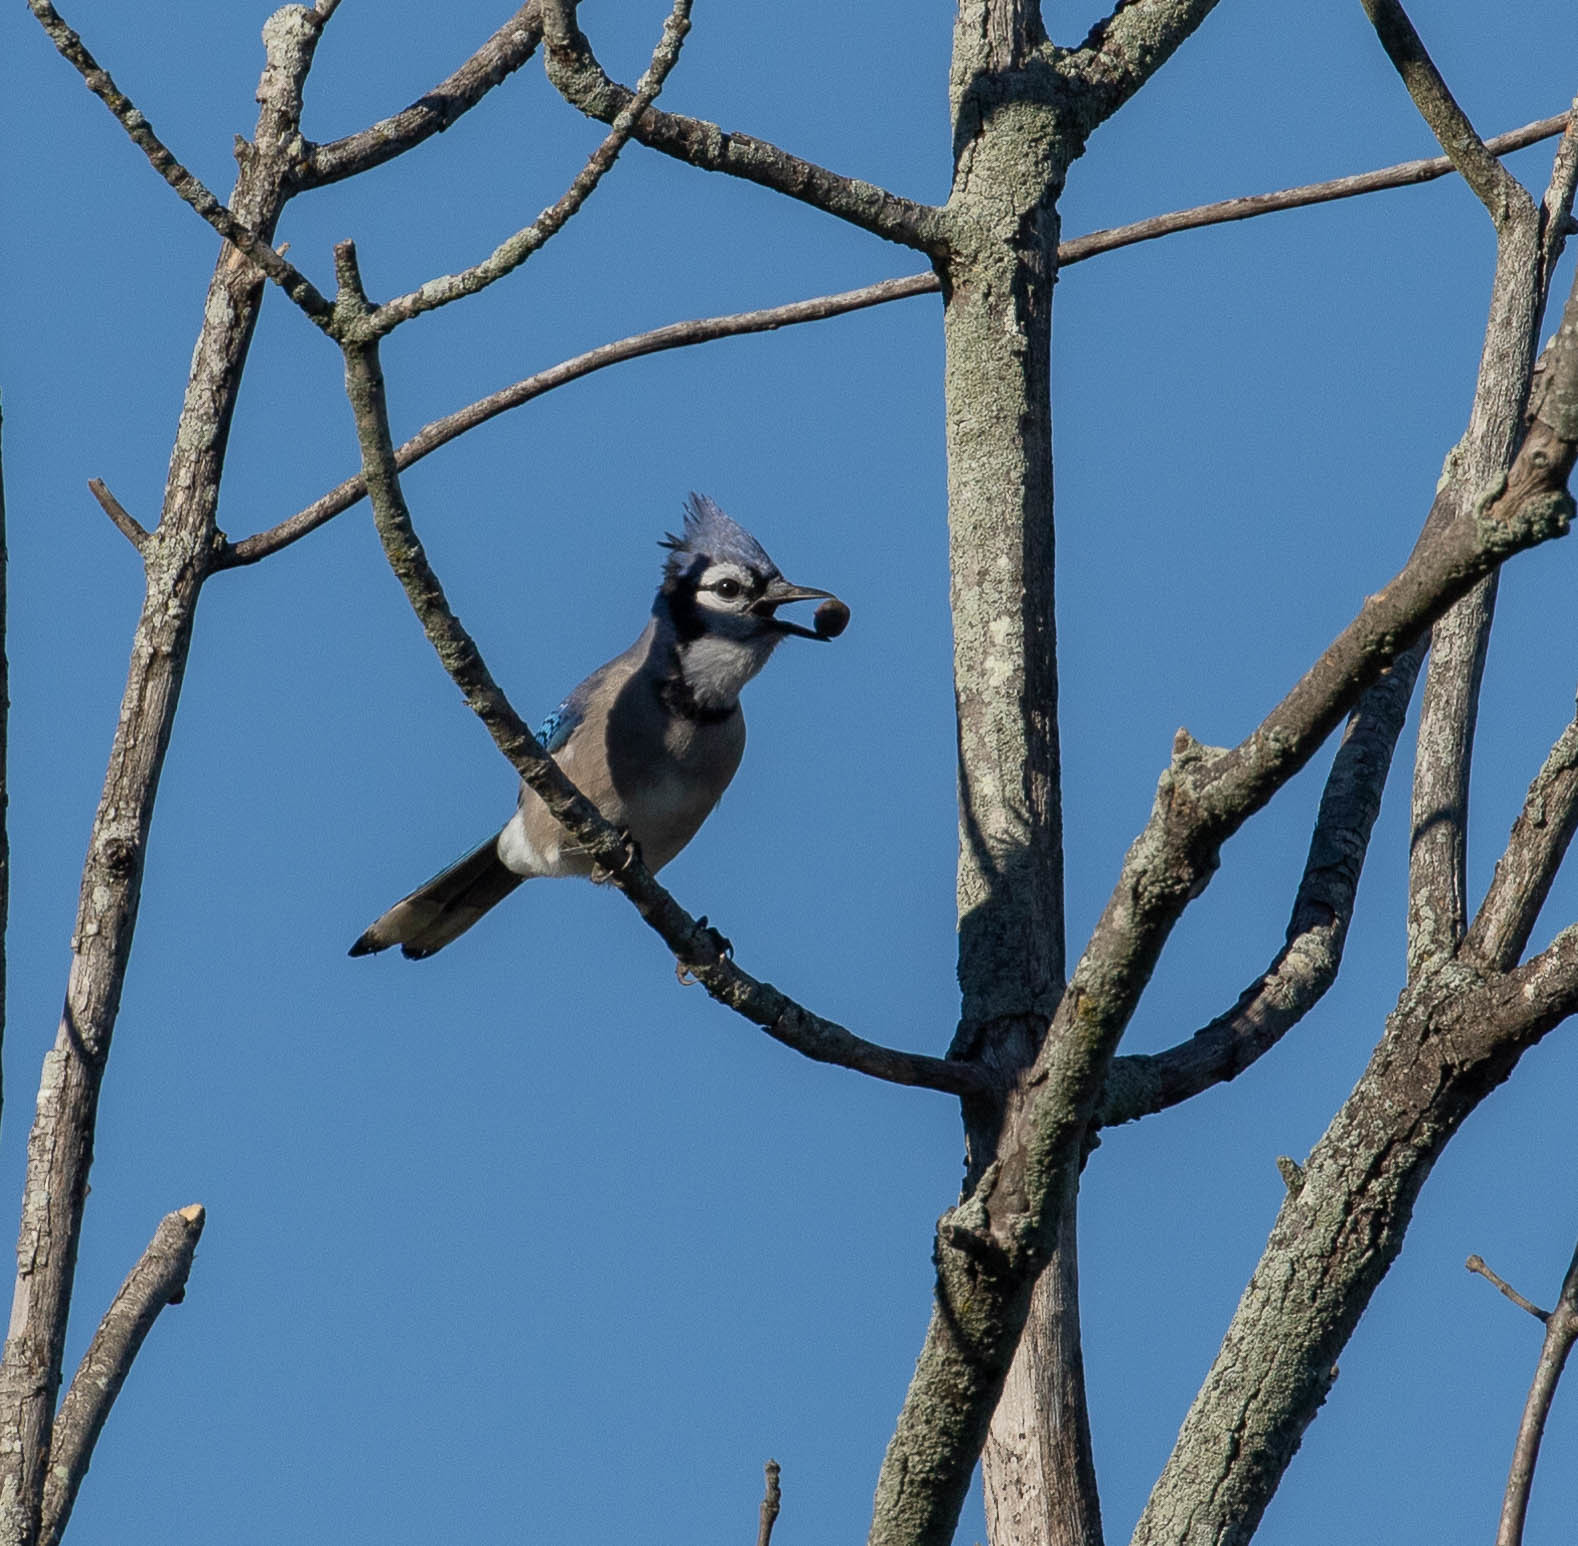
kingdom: Animalia
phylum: Chordata
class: Aves
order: Passeriformes
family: Corvidae
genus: Cyanocitta
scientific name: Cyanocitta cristata
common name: Blue jay
